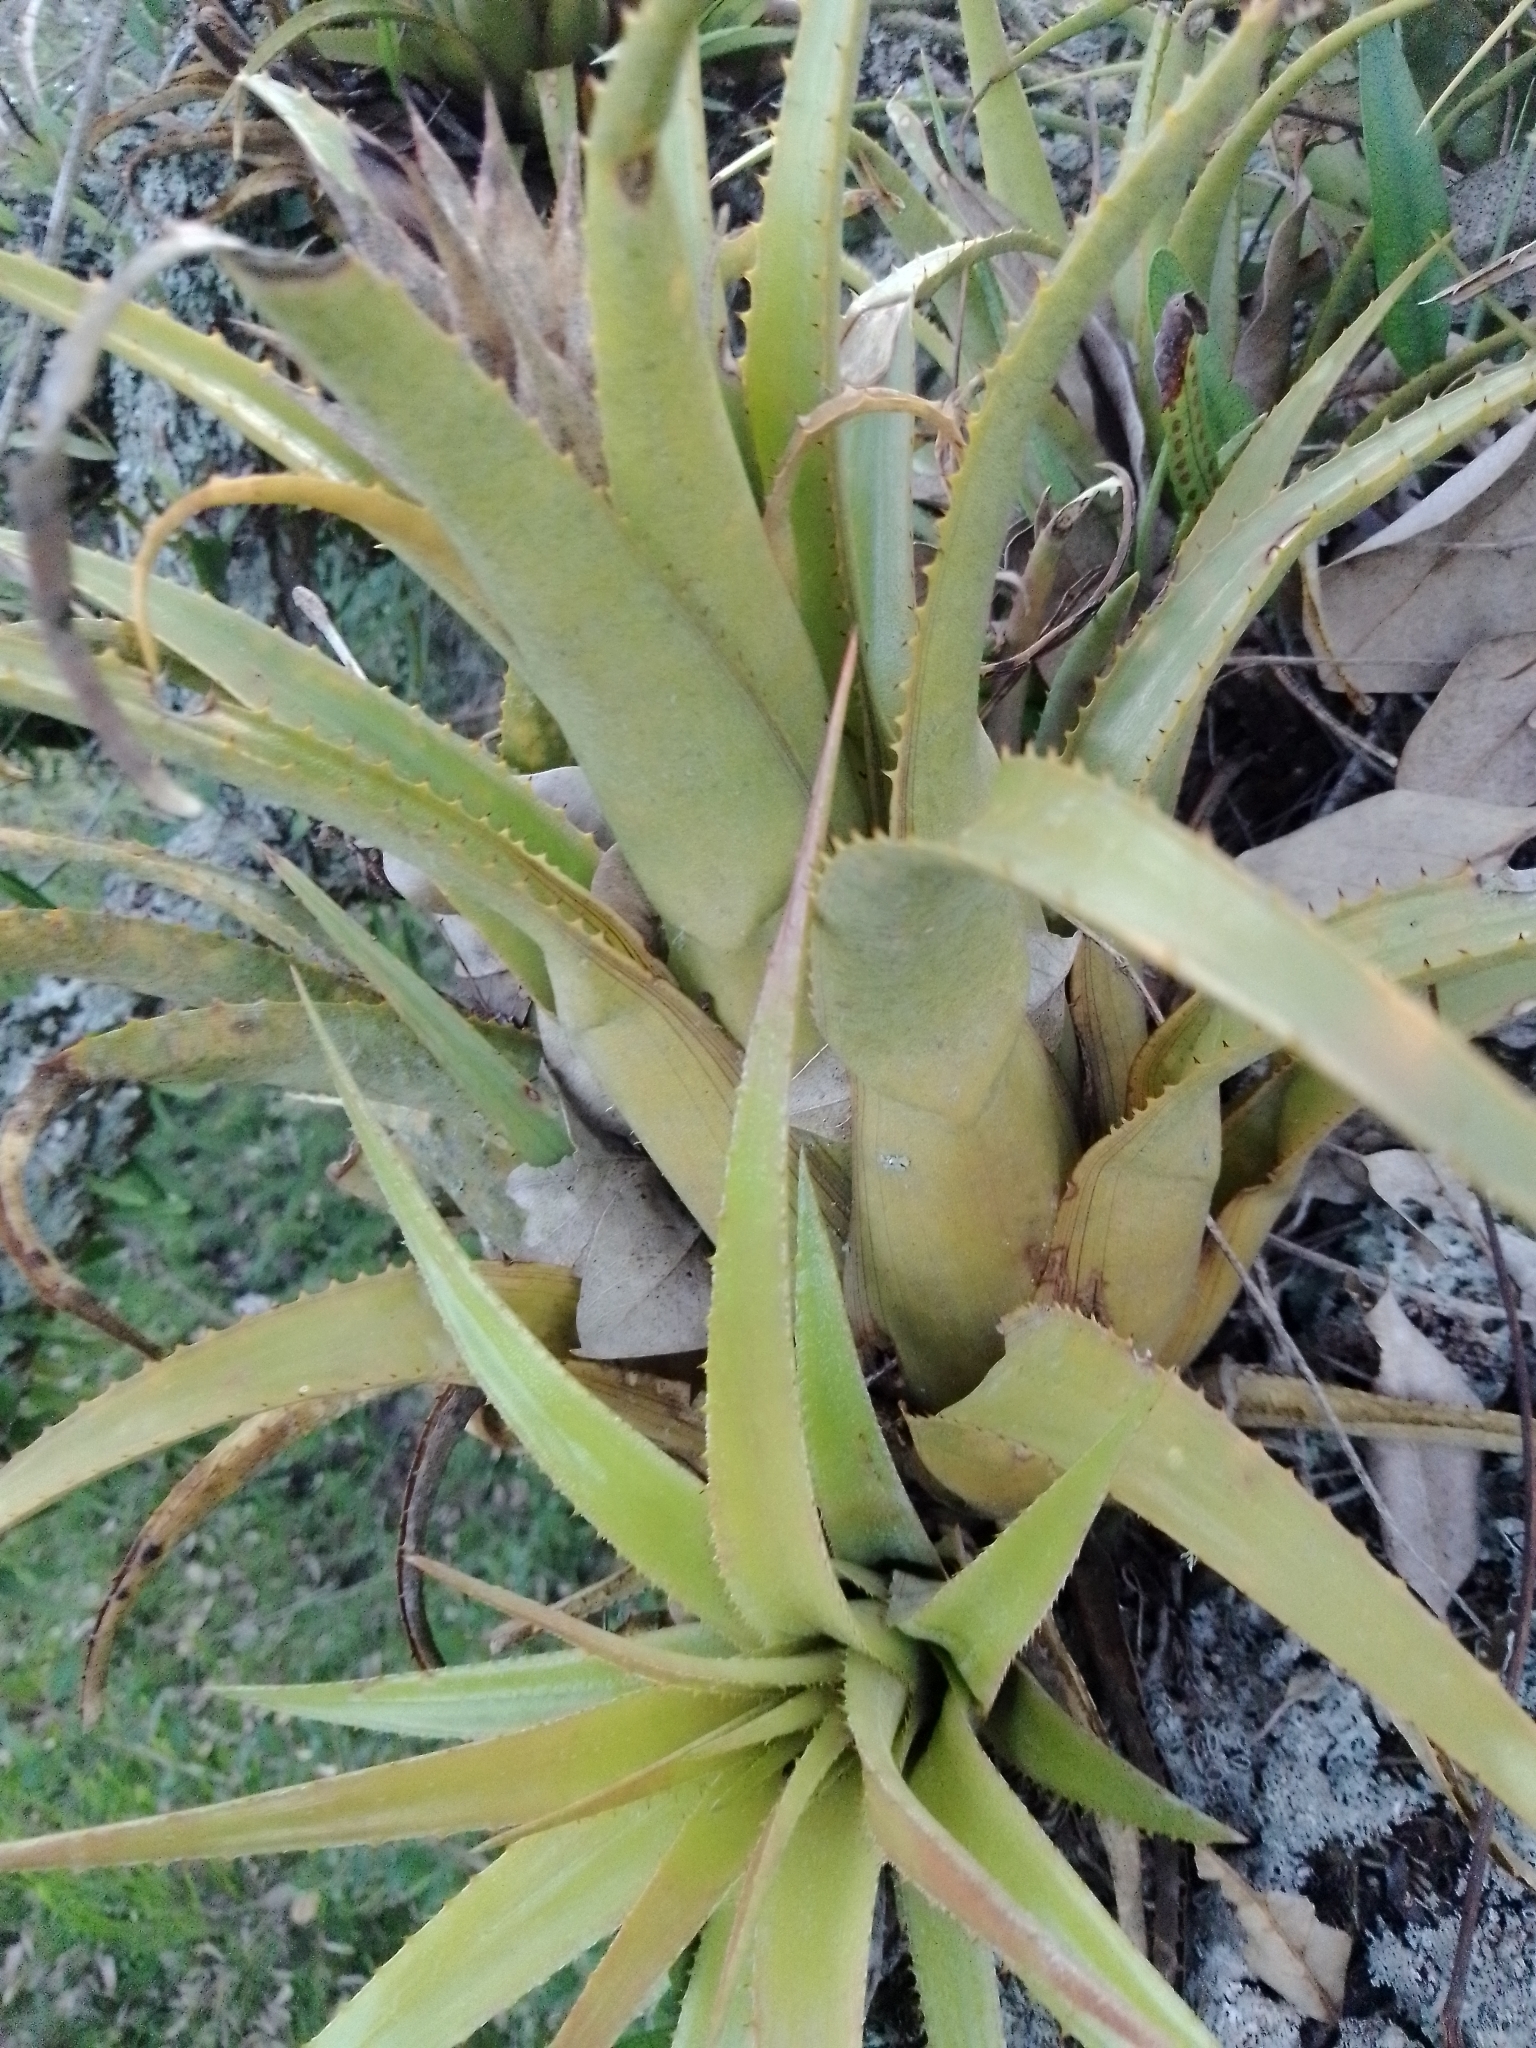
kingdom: Plantae
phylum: Tracheophyta
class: Liliopsida
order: Poales
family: Bromeliaceae
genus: Aechmea
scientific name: Aechmea recurvata
